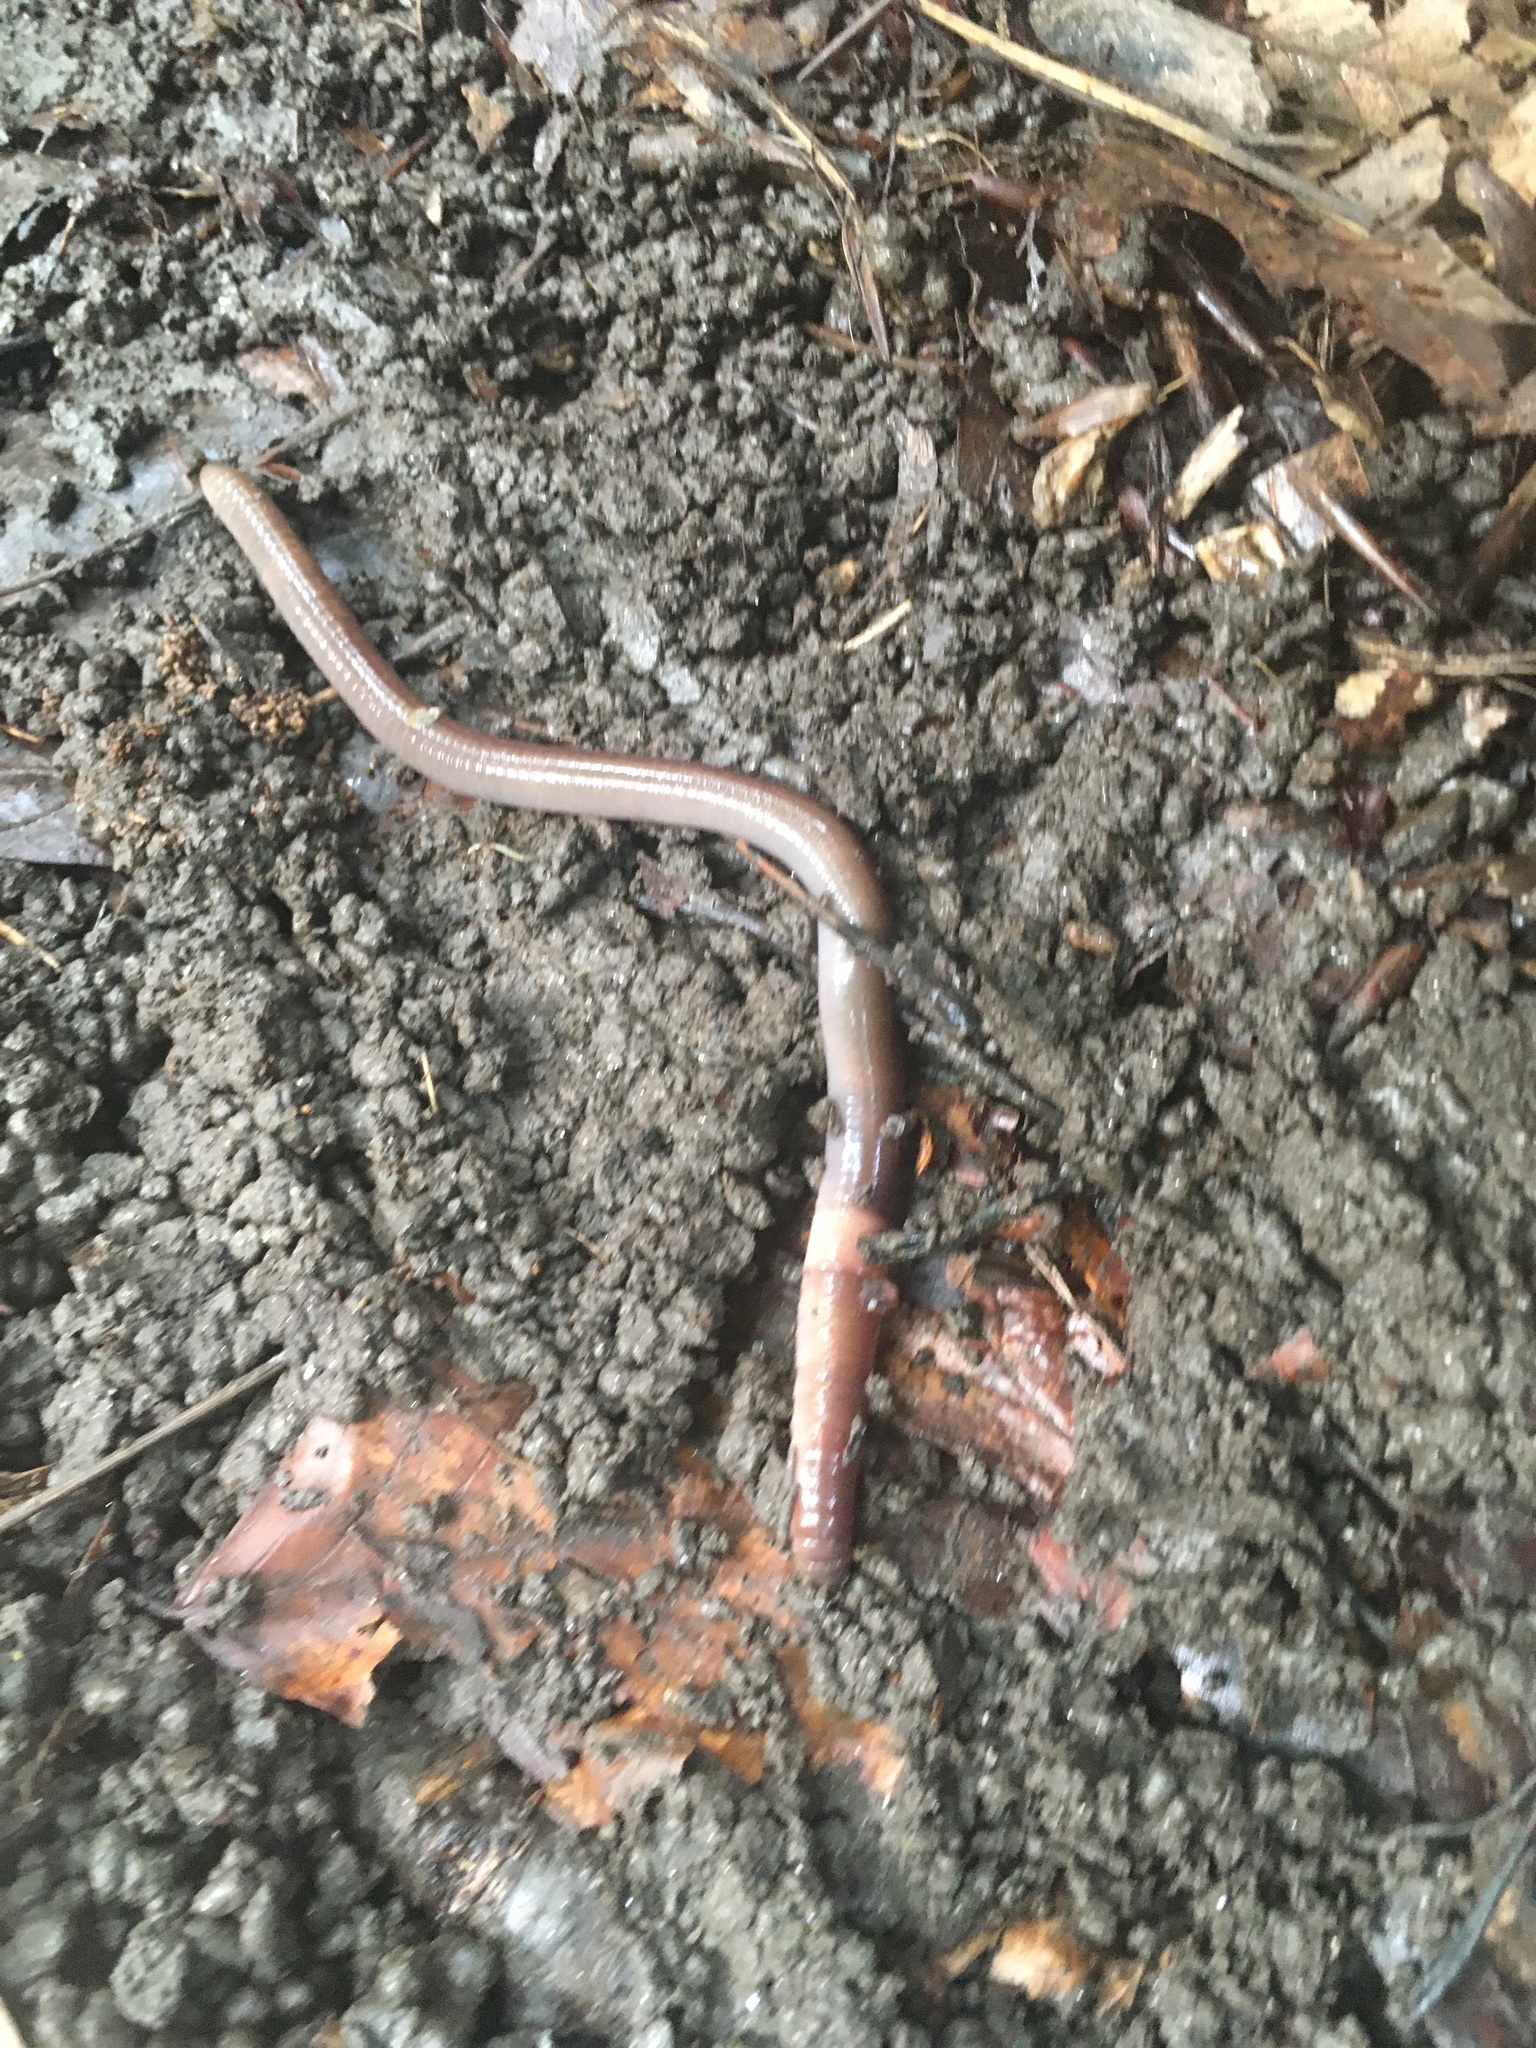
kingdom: Animalia
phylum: Annelida
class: Clitellata
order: Crassiclitellata
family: Lumbricidae
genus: Lumbricus
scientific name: Lumbricus terrestris
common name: Common earthworm
